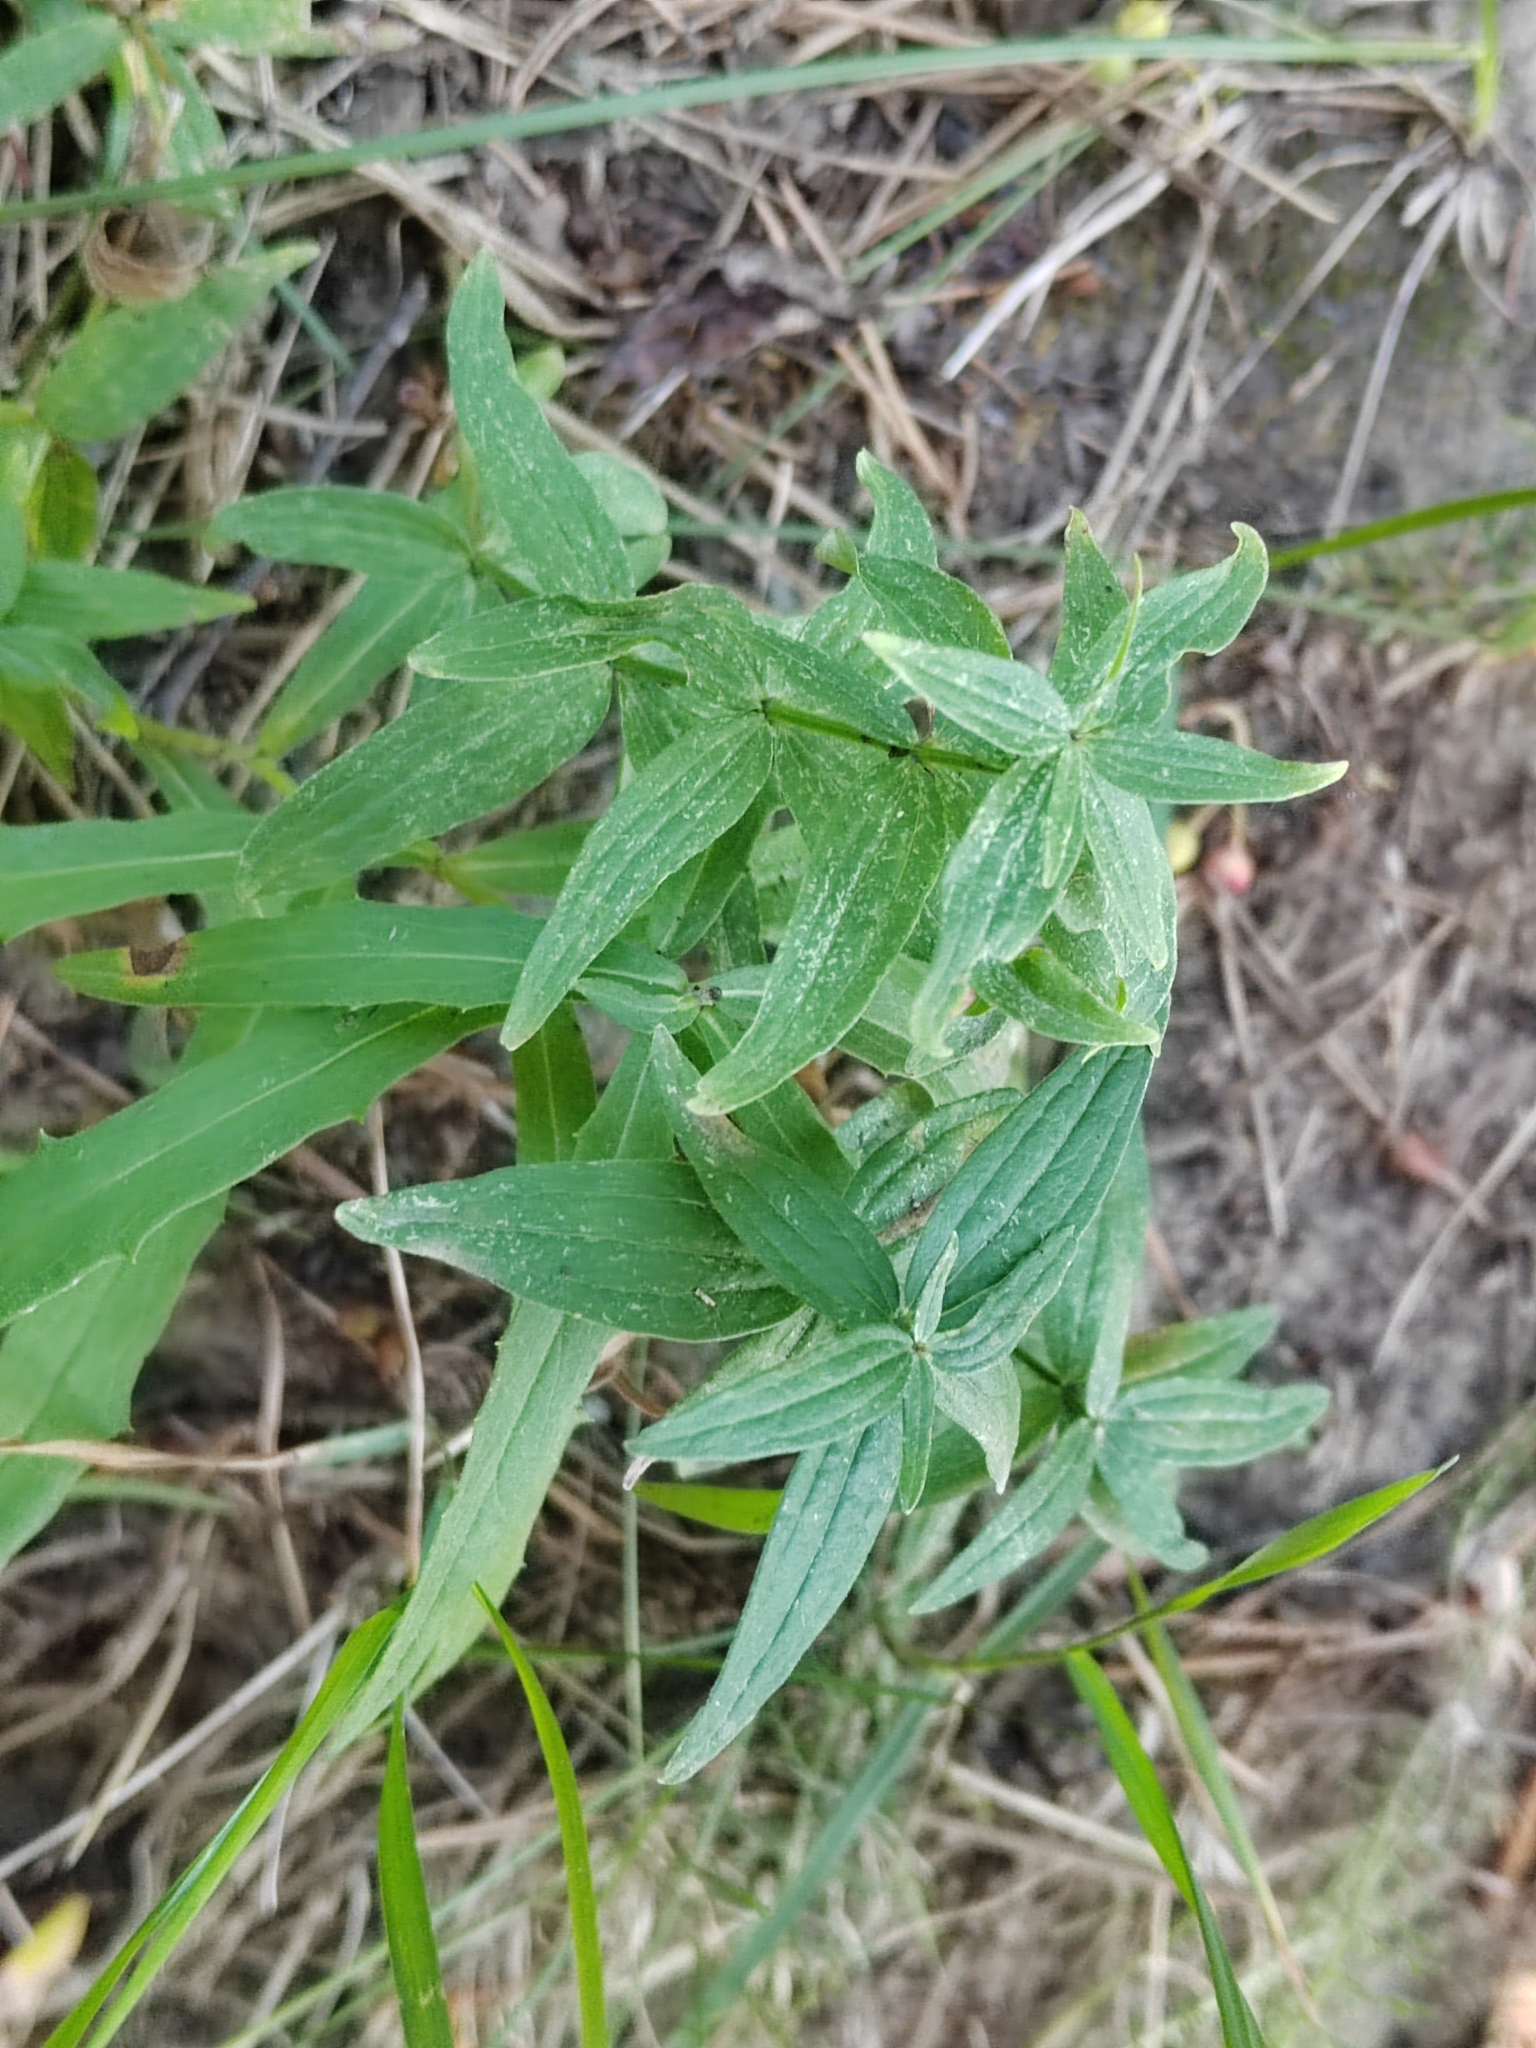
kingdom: Plantae
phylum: Tracheophyta
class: Magnoliopsida
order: Gentianales
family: Rubiaceae
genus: Galium
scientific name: Galium rubioides
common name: European bedstraw
